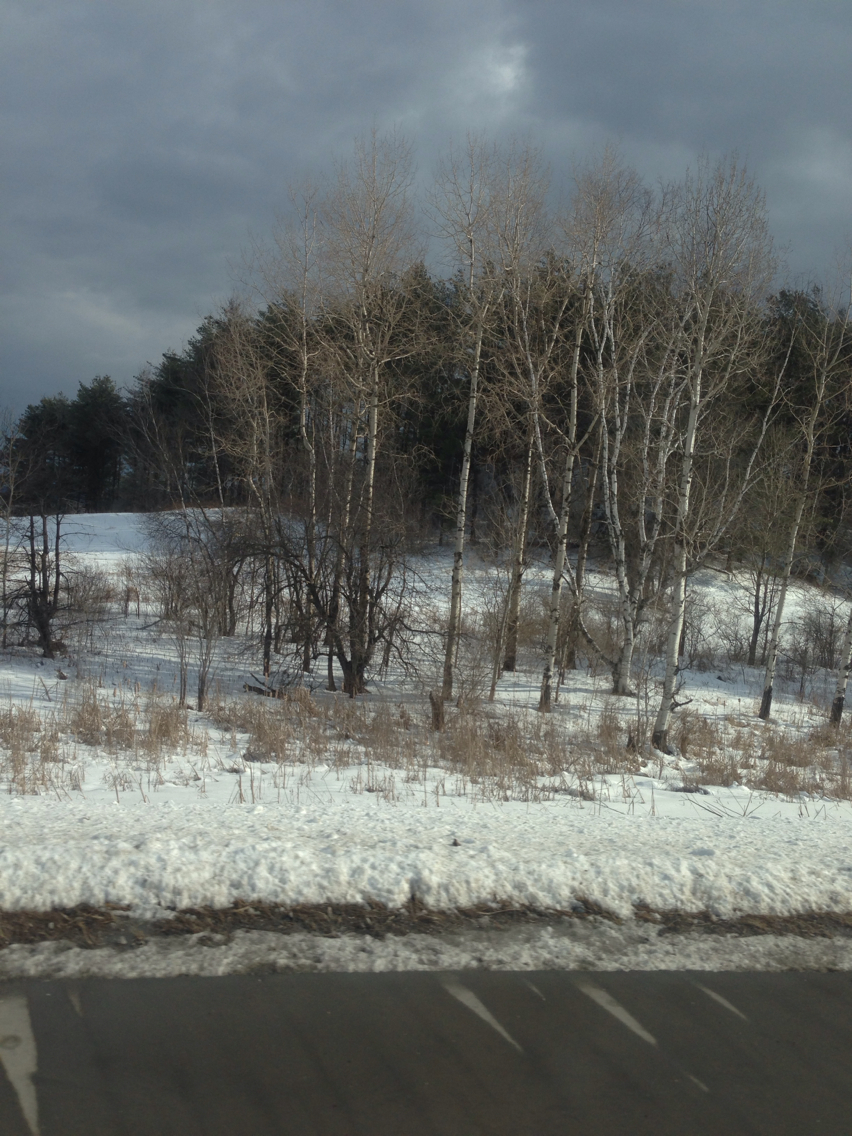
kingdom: Plantae
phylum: Tracheophyta
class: Magnoliopsida
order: Malpighiales
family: Salicaceae
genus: Populus
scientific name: Populus tremuloides
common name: Quaking aspen
